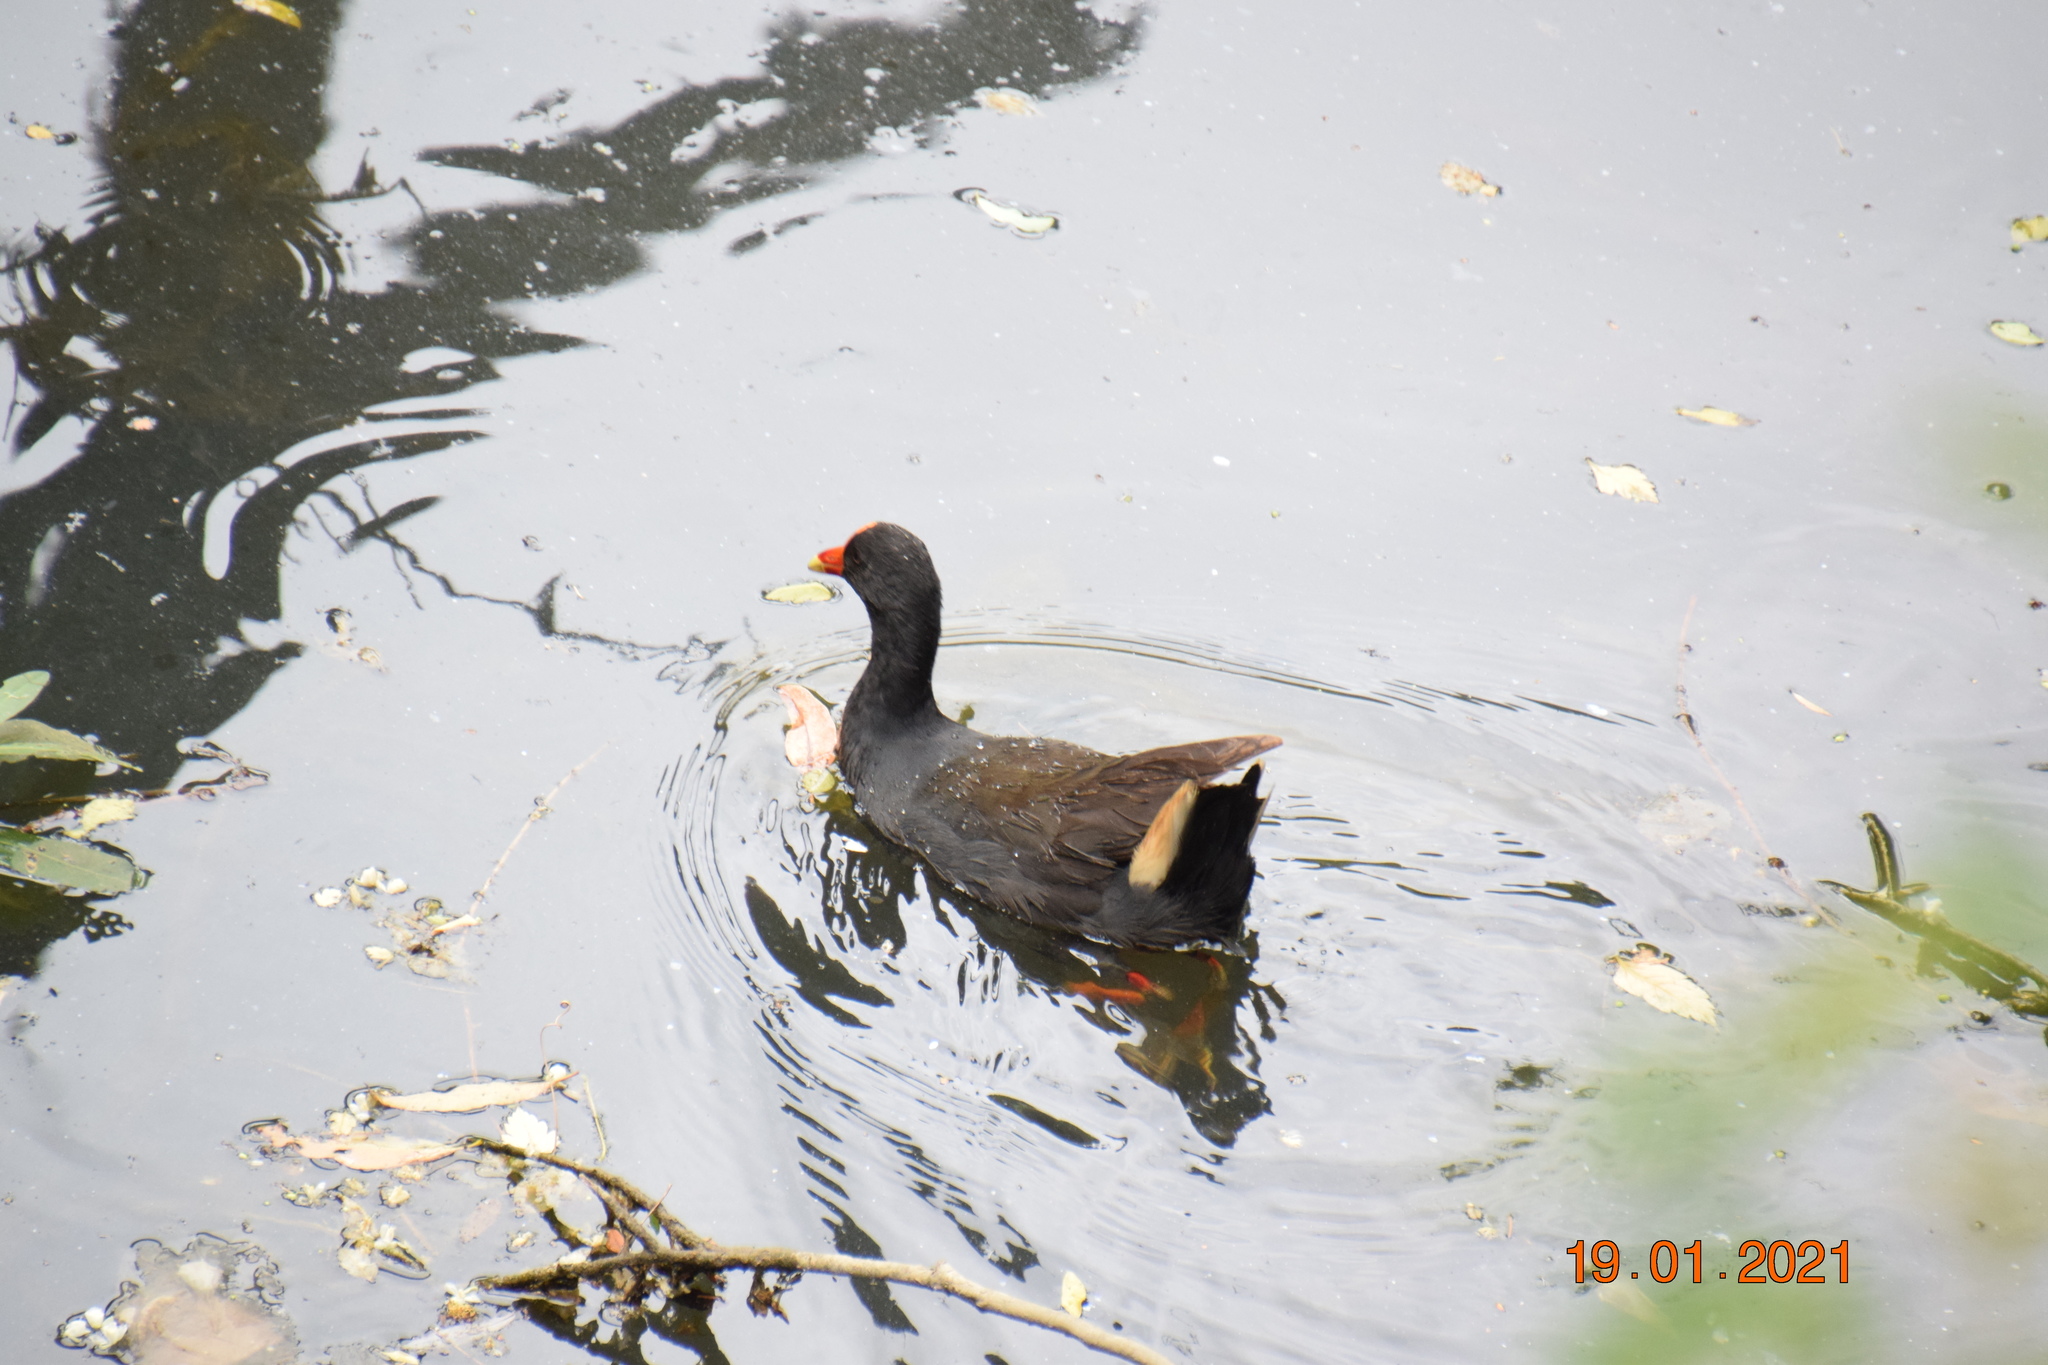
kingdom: Animalia
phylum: Chordata
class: Aves
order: Gruiformes
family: Rallidae
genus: Gallinula
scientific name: Gallinula tenebrosa
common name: Dusky moorhen
